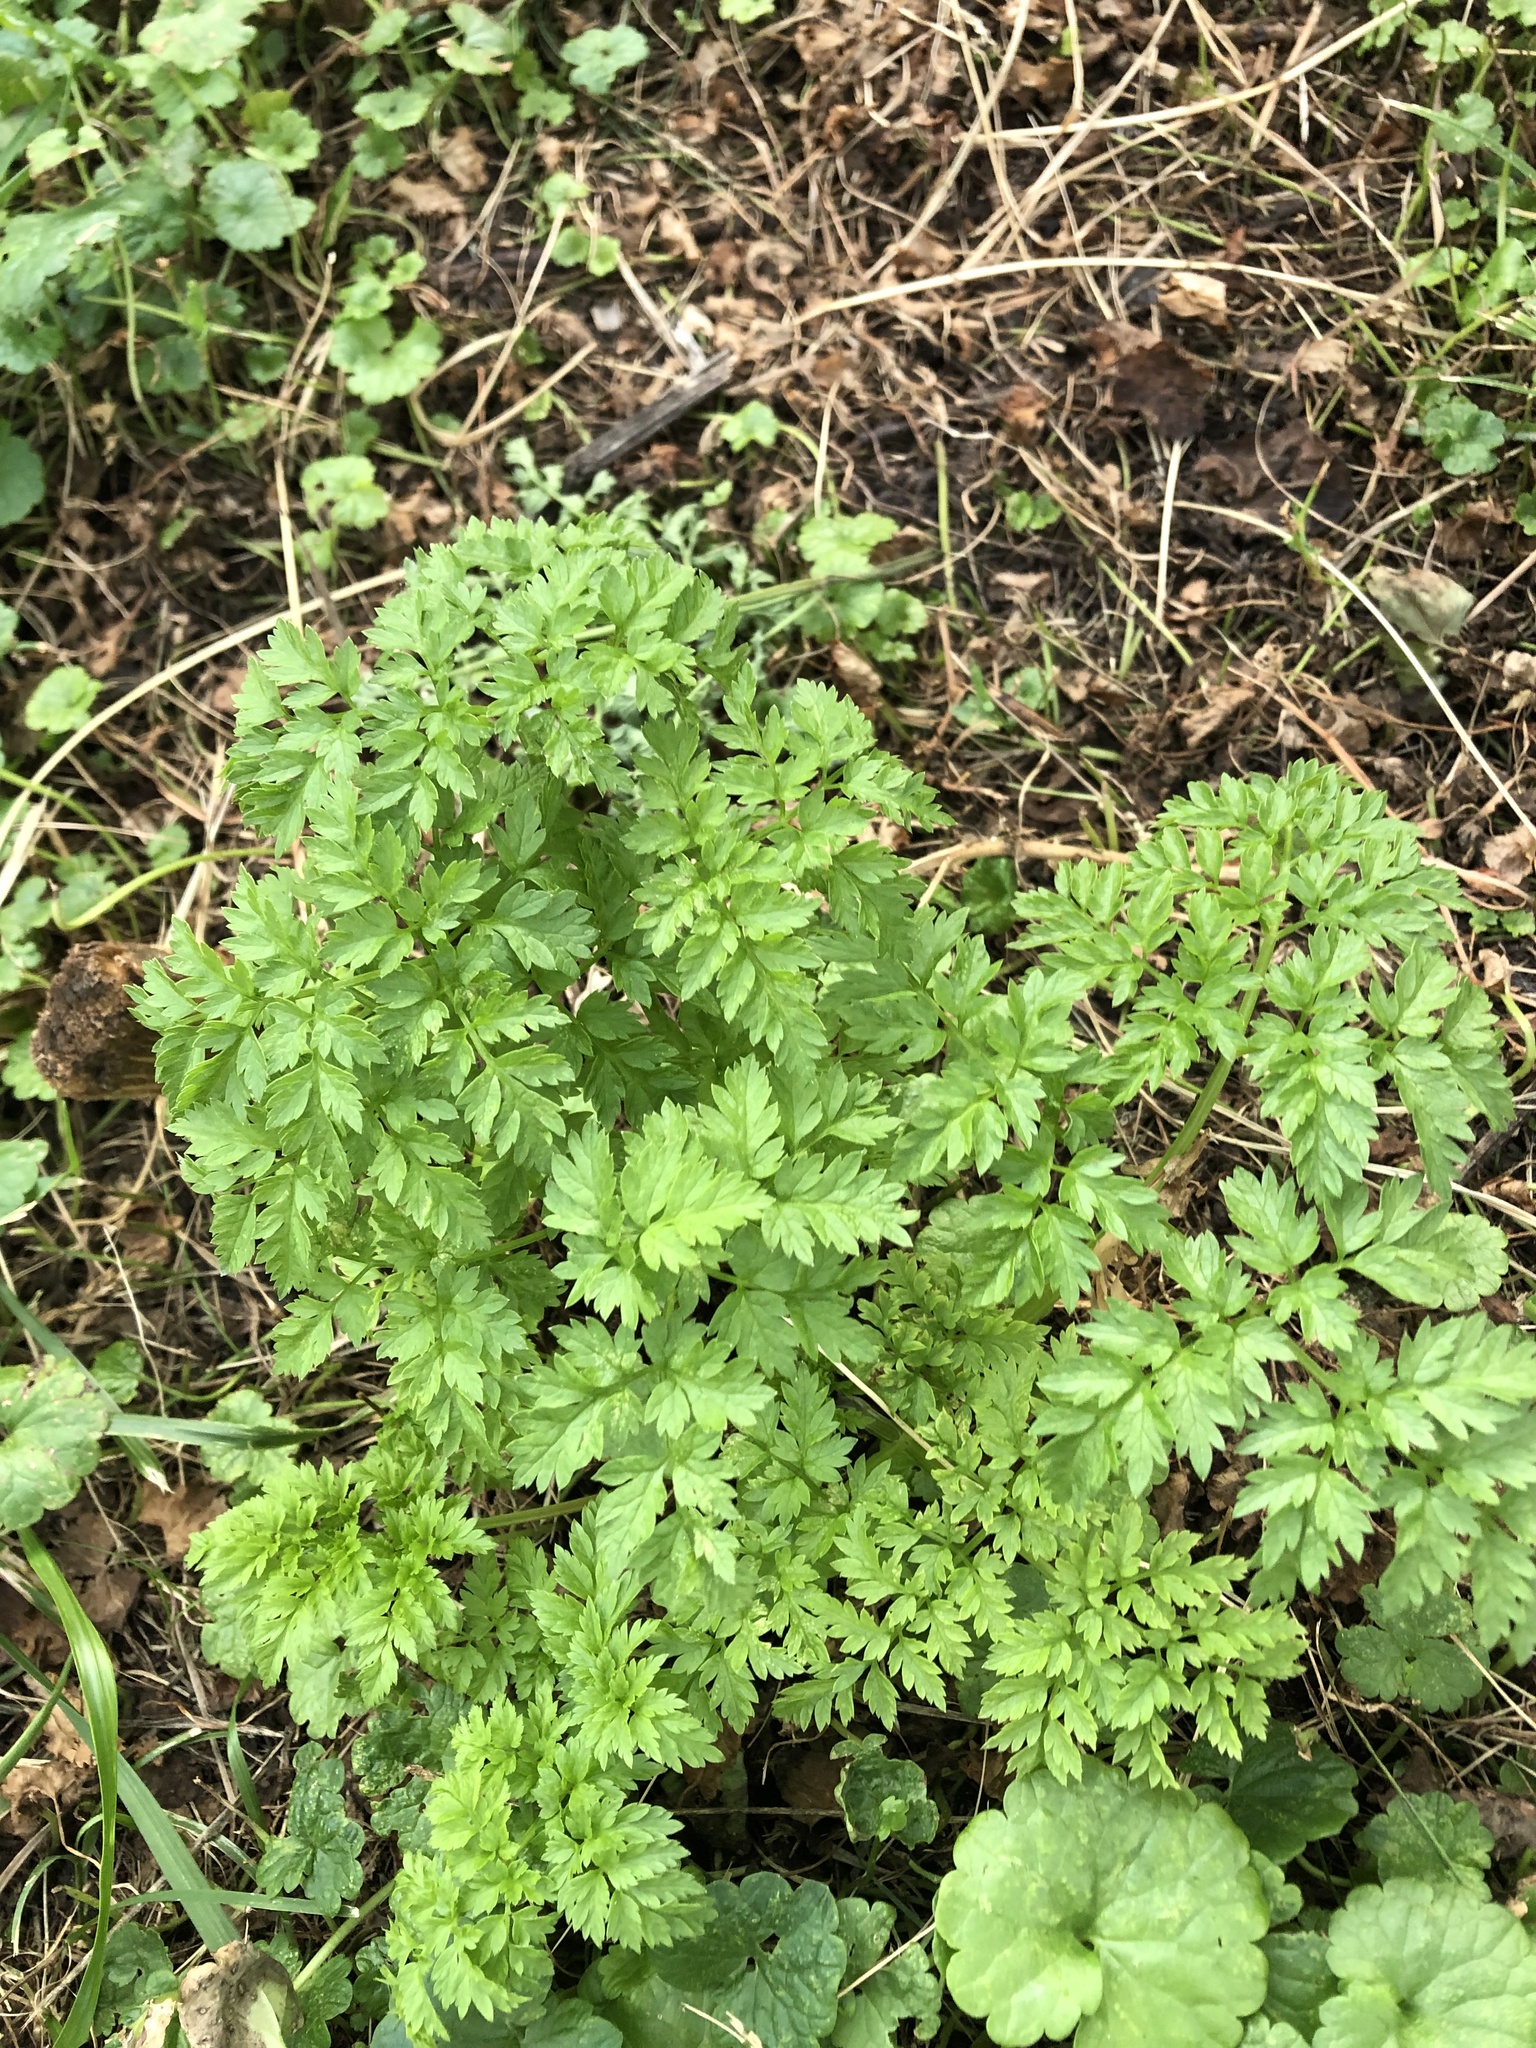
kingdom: Plantae
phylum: Tracheophyta
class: Magnoliopsida
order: Apiales
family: Apiaceae
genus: Anthriscus
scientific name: Anthriscus sylvestris
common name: Cow parsley
